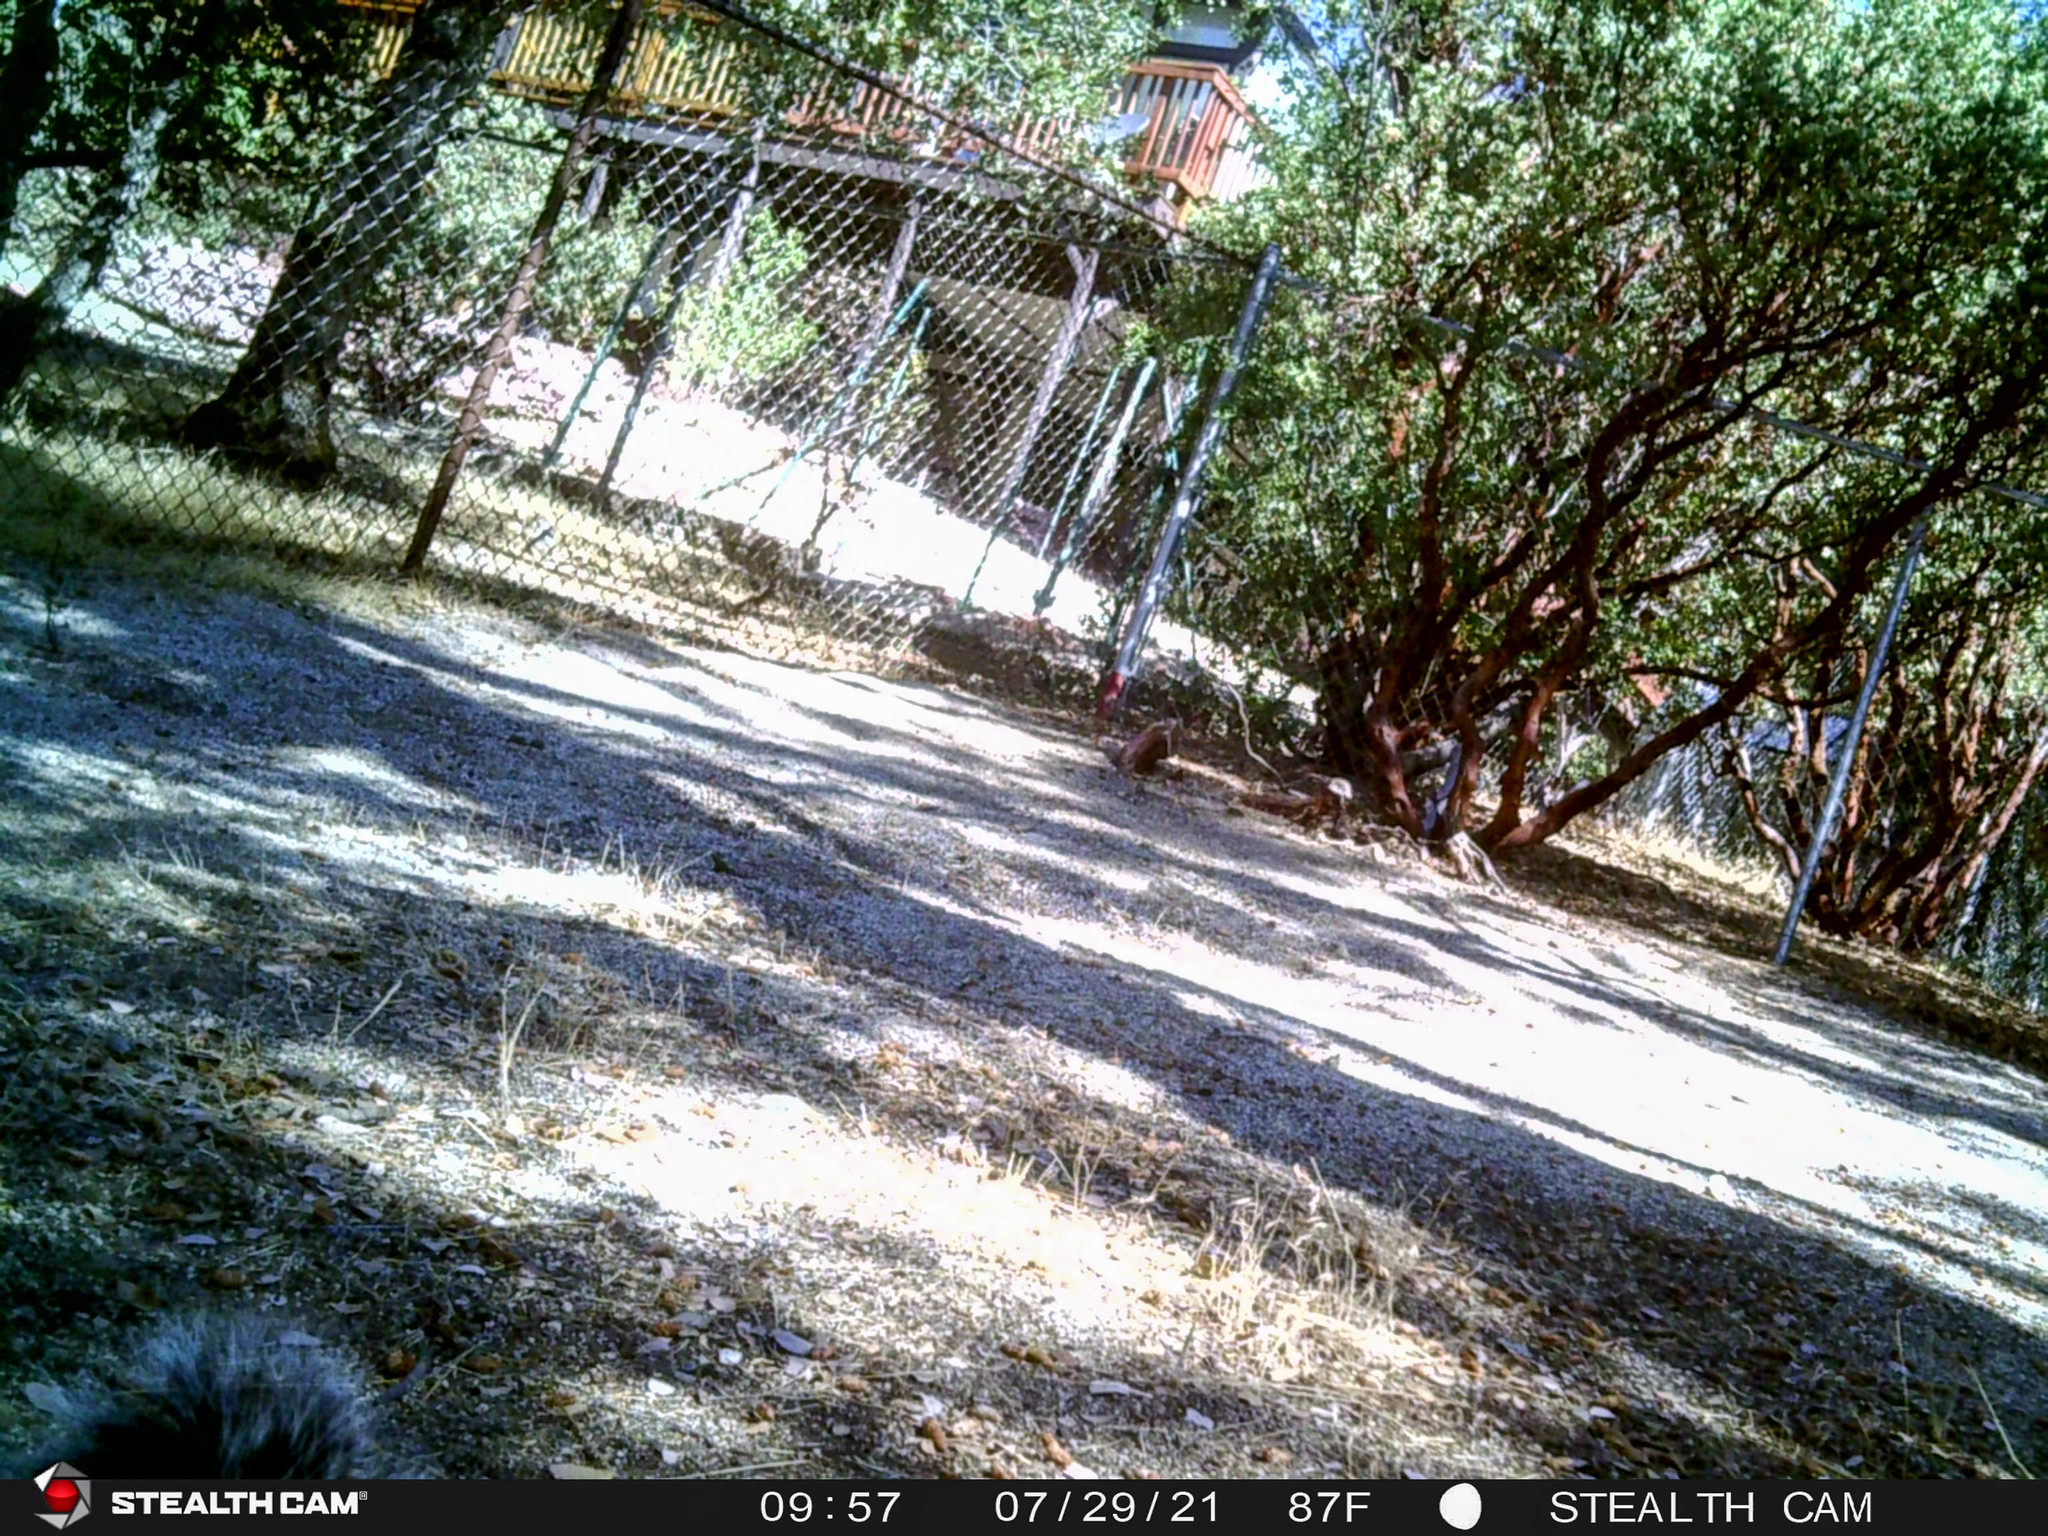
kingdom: Animalia
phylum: Chordata
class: Mammalia
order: Rodentia
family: Sciuridae
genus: Sciurus
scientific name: Sciurus griseus
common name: Western gray squirrel
